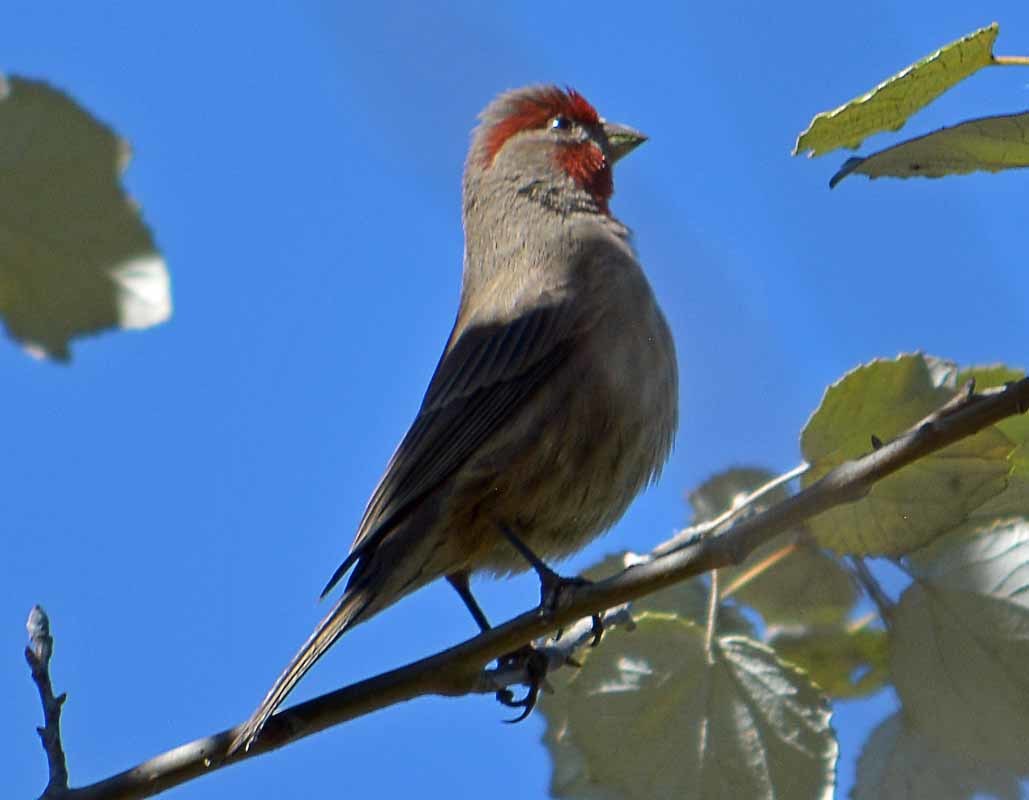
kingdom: Animalia
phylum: Chordata
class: Aves
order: Passeriformes
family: Fringillidae
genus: Haemorhous
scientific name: Haemorhous mexicanus
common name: House finch
